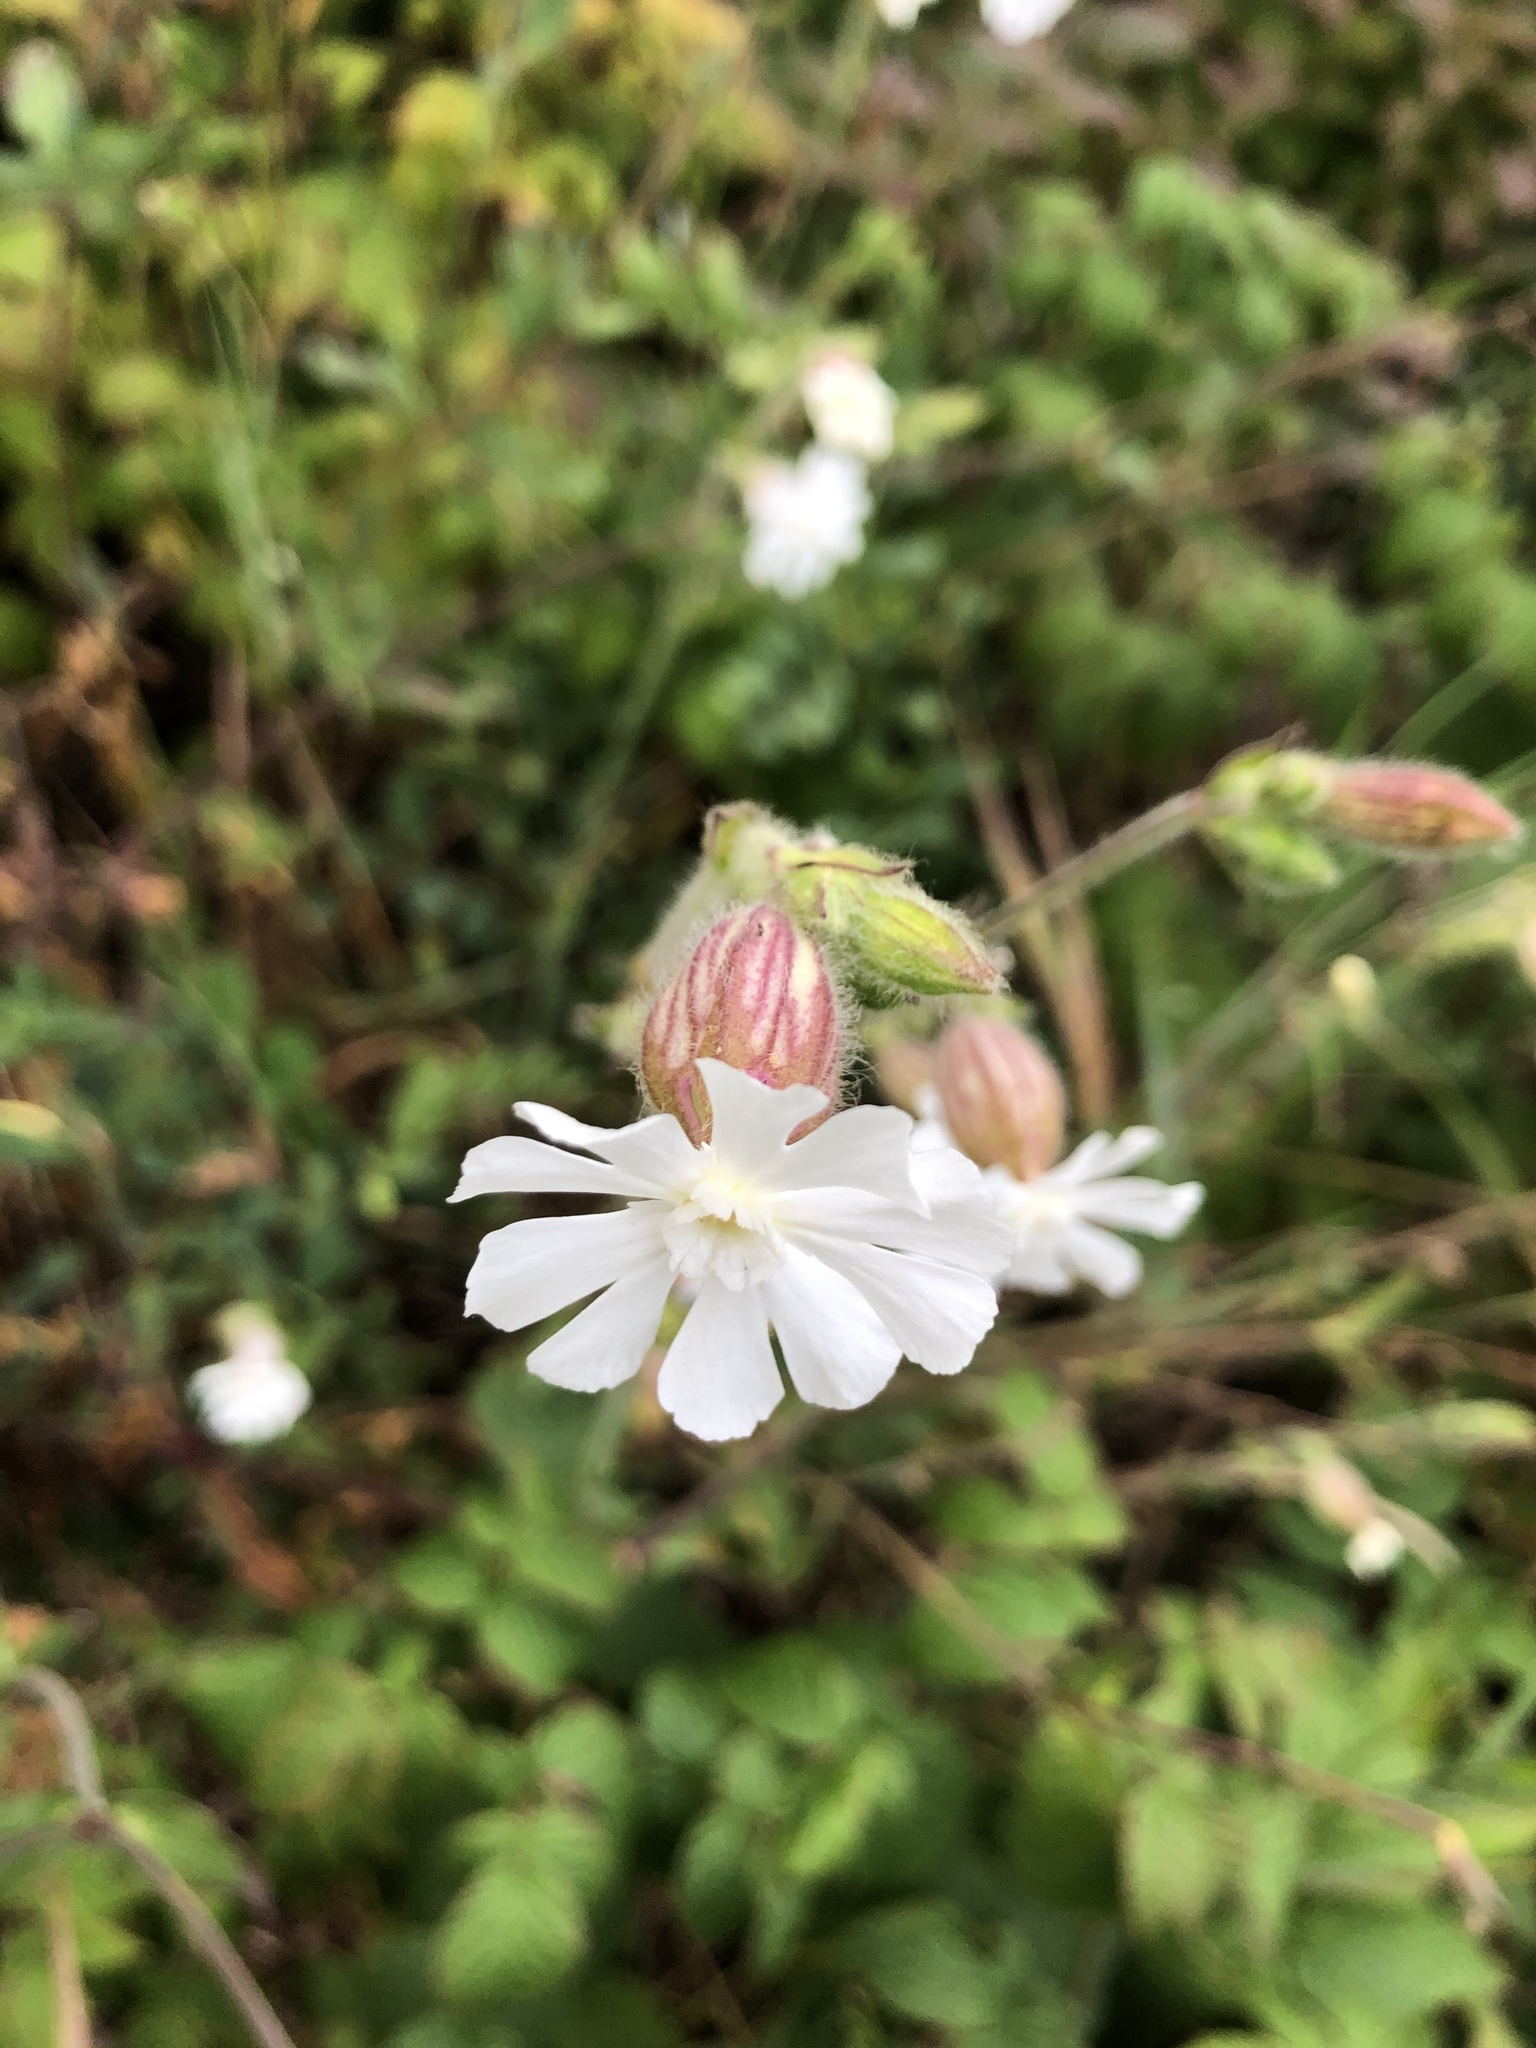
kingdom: Plantae
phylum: Tracheophyta
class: Magnoliopsida
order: Caryophyllales
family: Caryophyllaceae
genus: Silene
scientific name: Silene latifolia
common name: White campion
